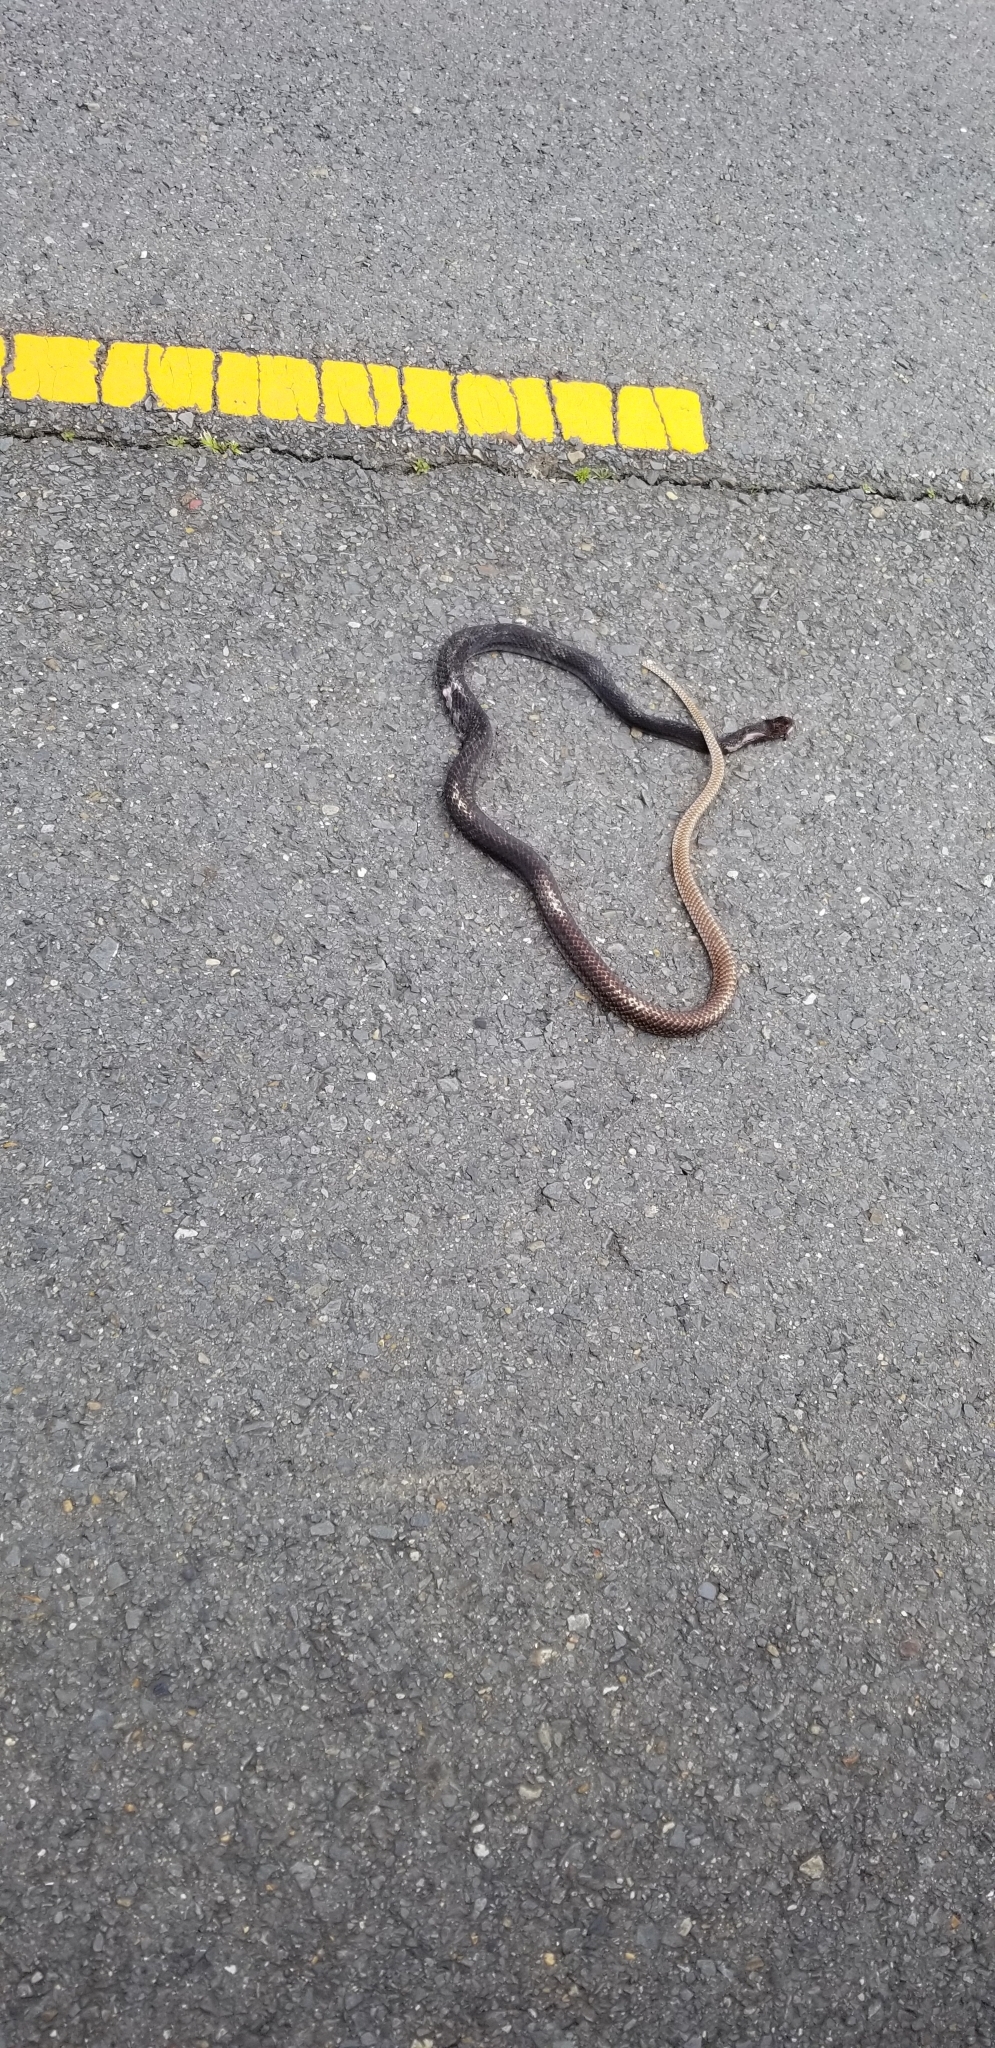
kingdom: Animalia
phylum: Chordata
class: Squamata
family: Colubridae
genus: Masticophis
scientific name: Masticophis flagellum
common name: Coachwhip
